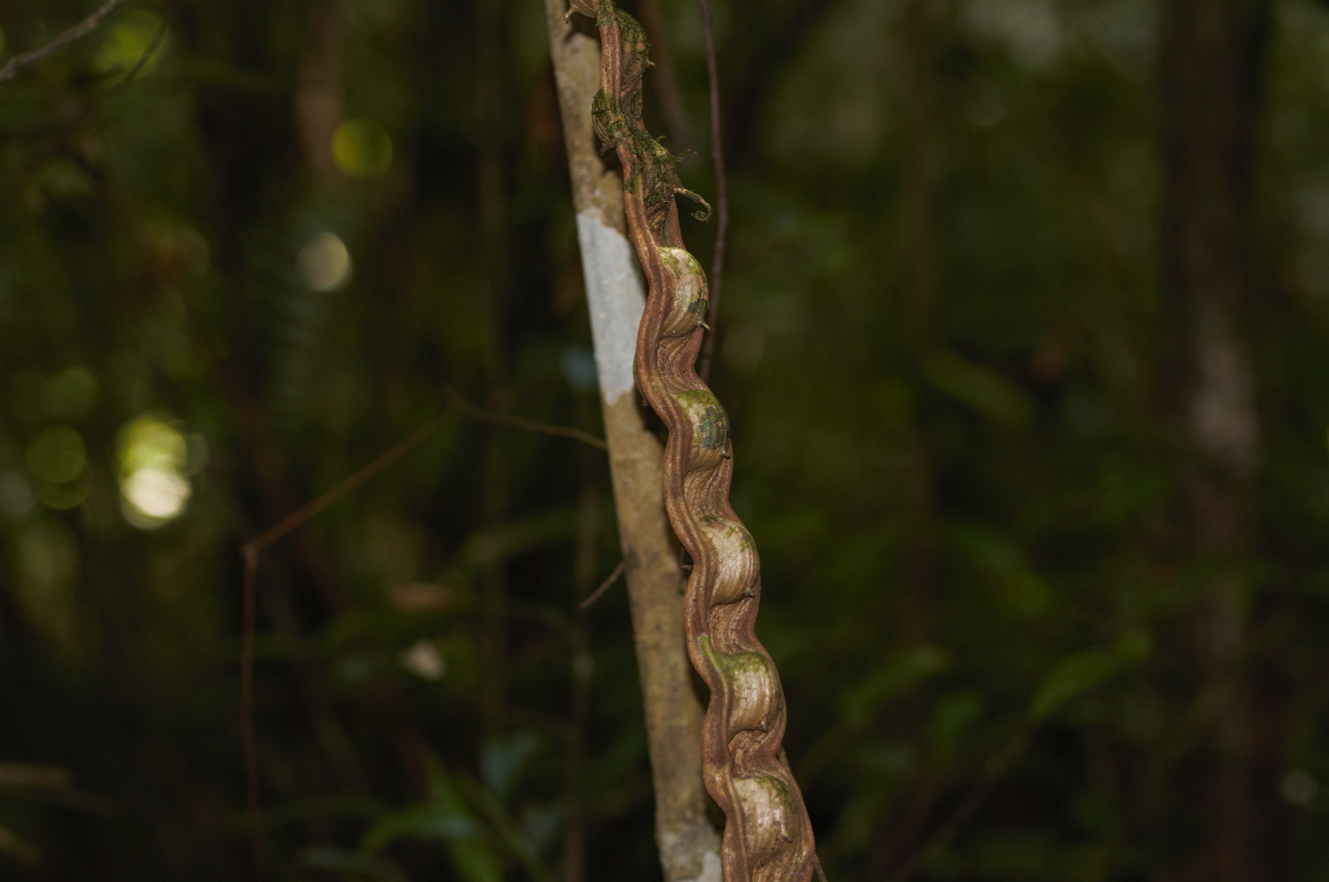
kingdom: Plantae
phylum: Tracheophyta
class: Magnoliopsida
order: Fabales
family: Fabaceae
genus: Schnella
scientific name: Schnella
